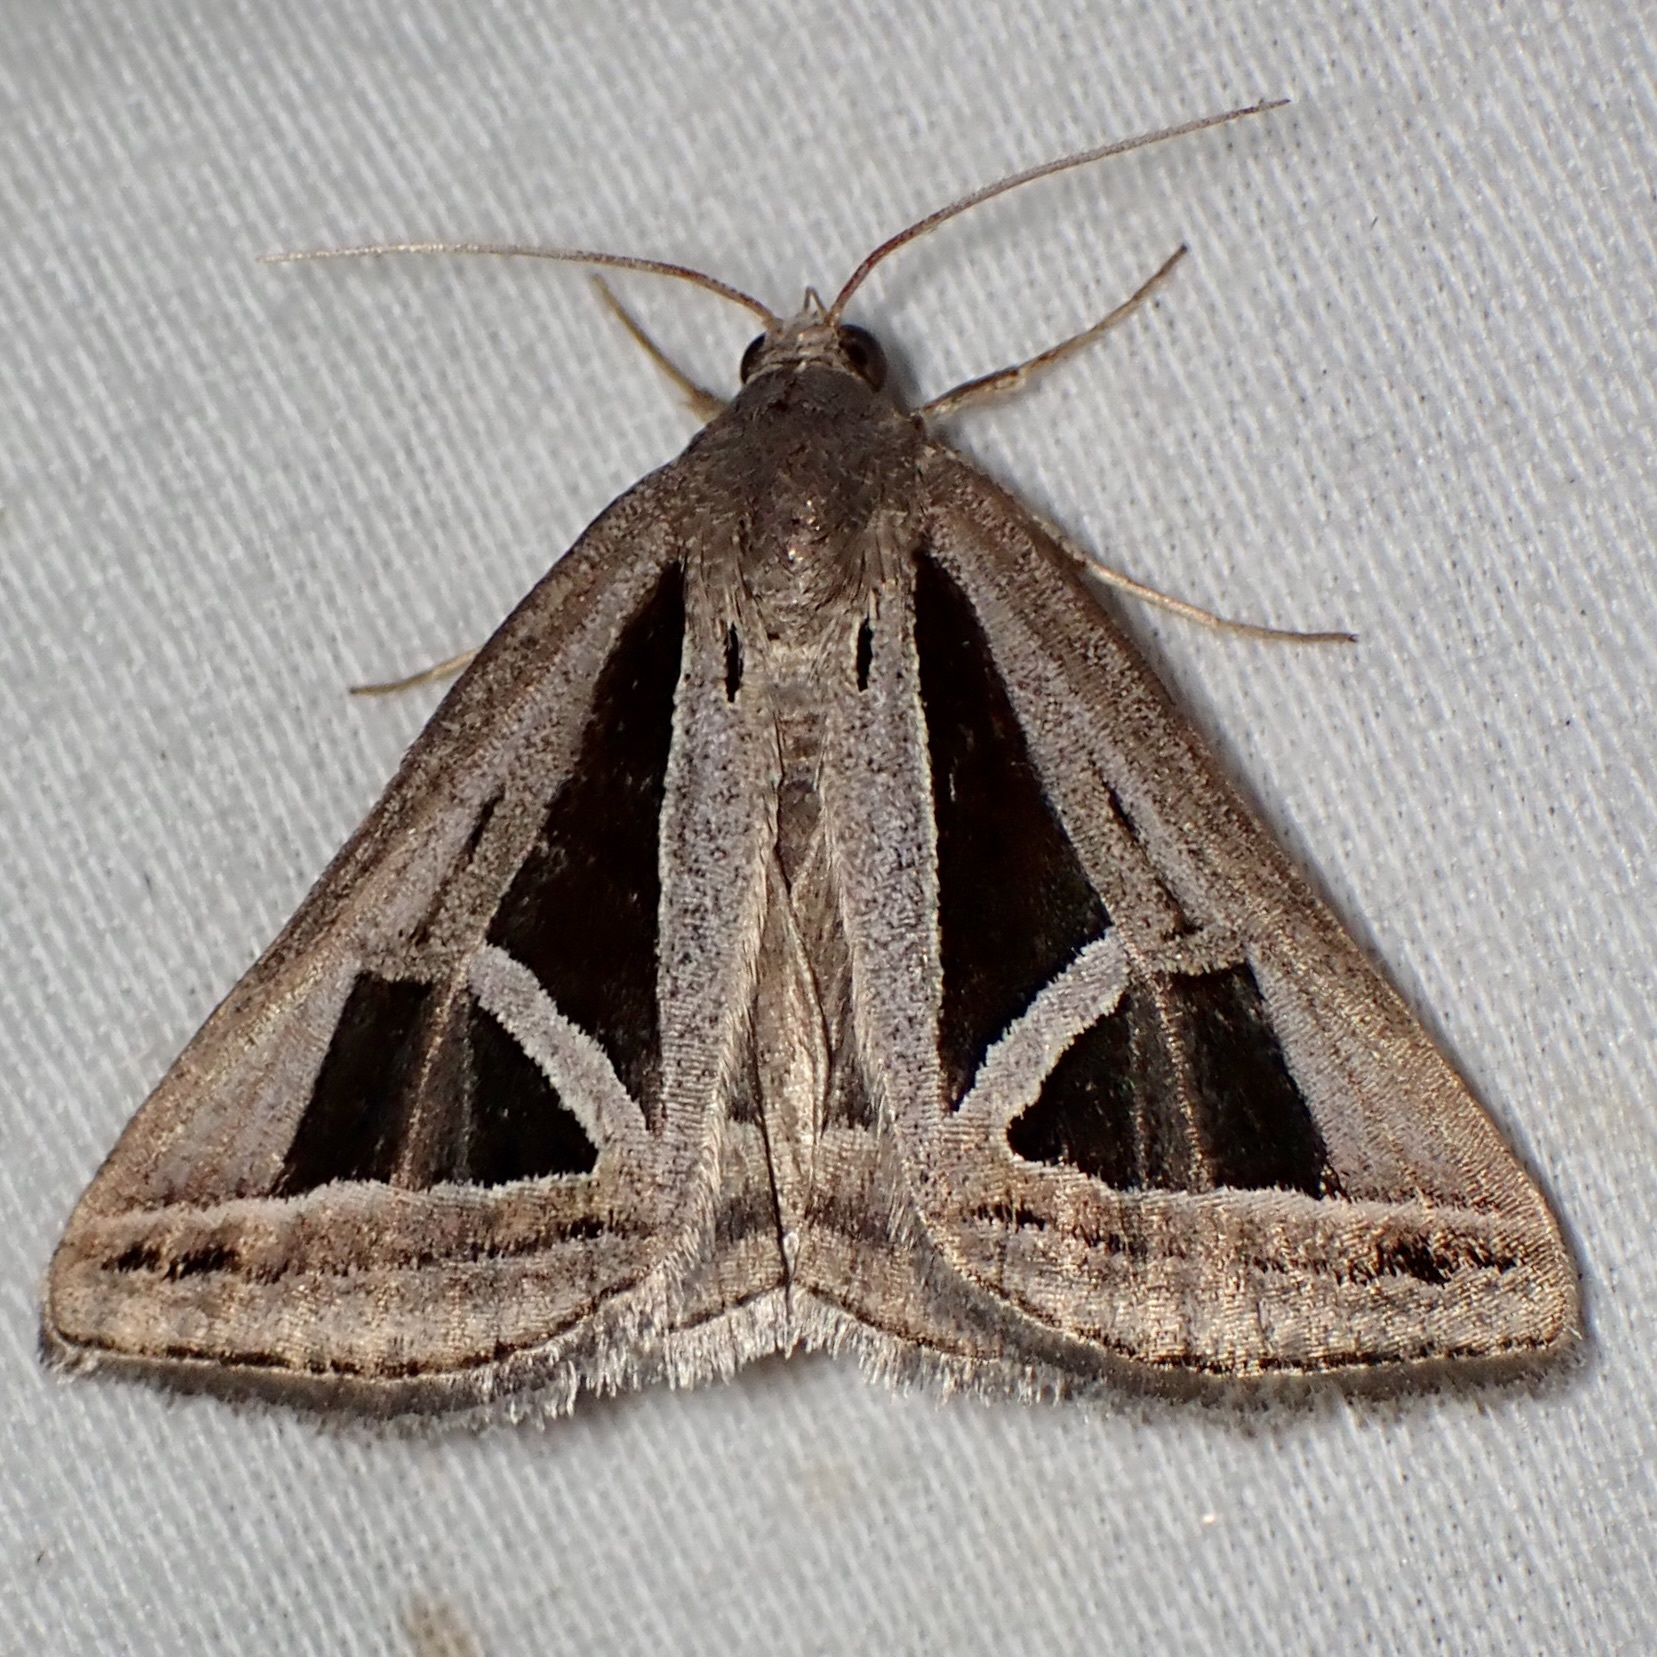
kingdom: Animalia
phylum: Arthropoda
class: Insecta
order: Lepidoptera
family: Erebidae
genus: Callistege
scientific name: Callistege triangula
